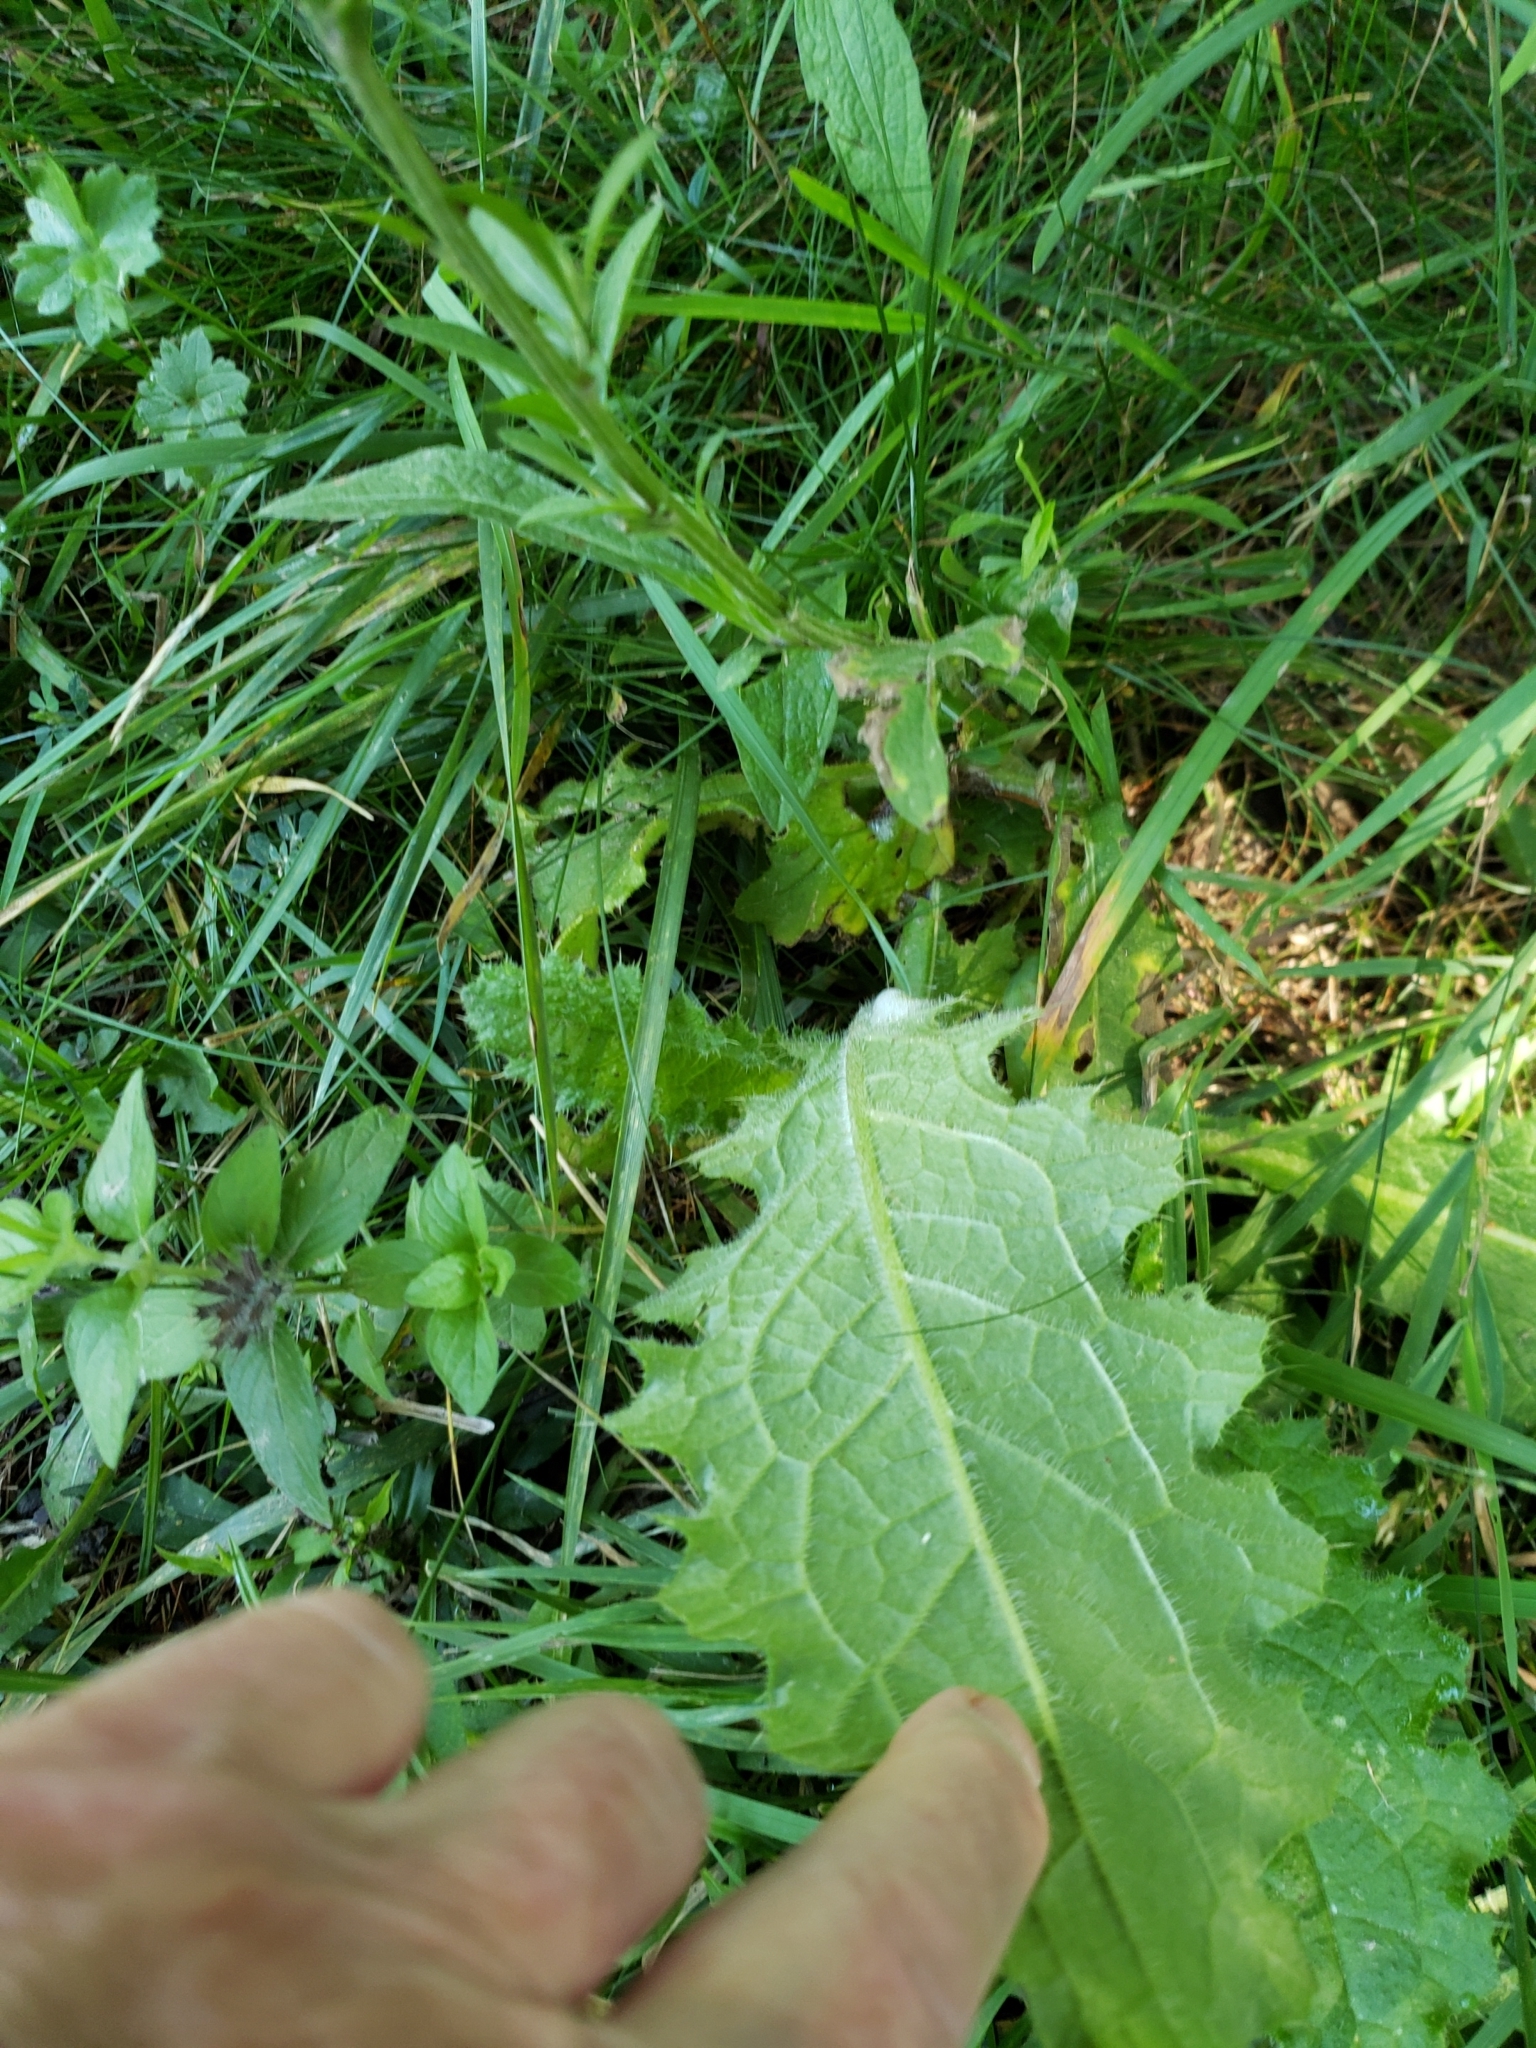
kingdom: Plantae
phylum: Tracheophyta
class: Magnoliopsida
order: Asterales
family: Asteraceae
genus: Cirsium
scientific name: Cirsium arvense
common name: Creeping thistle
